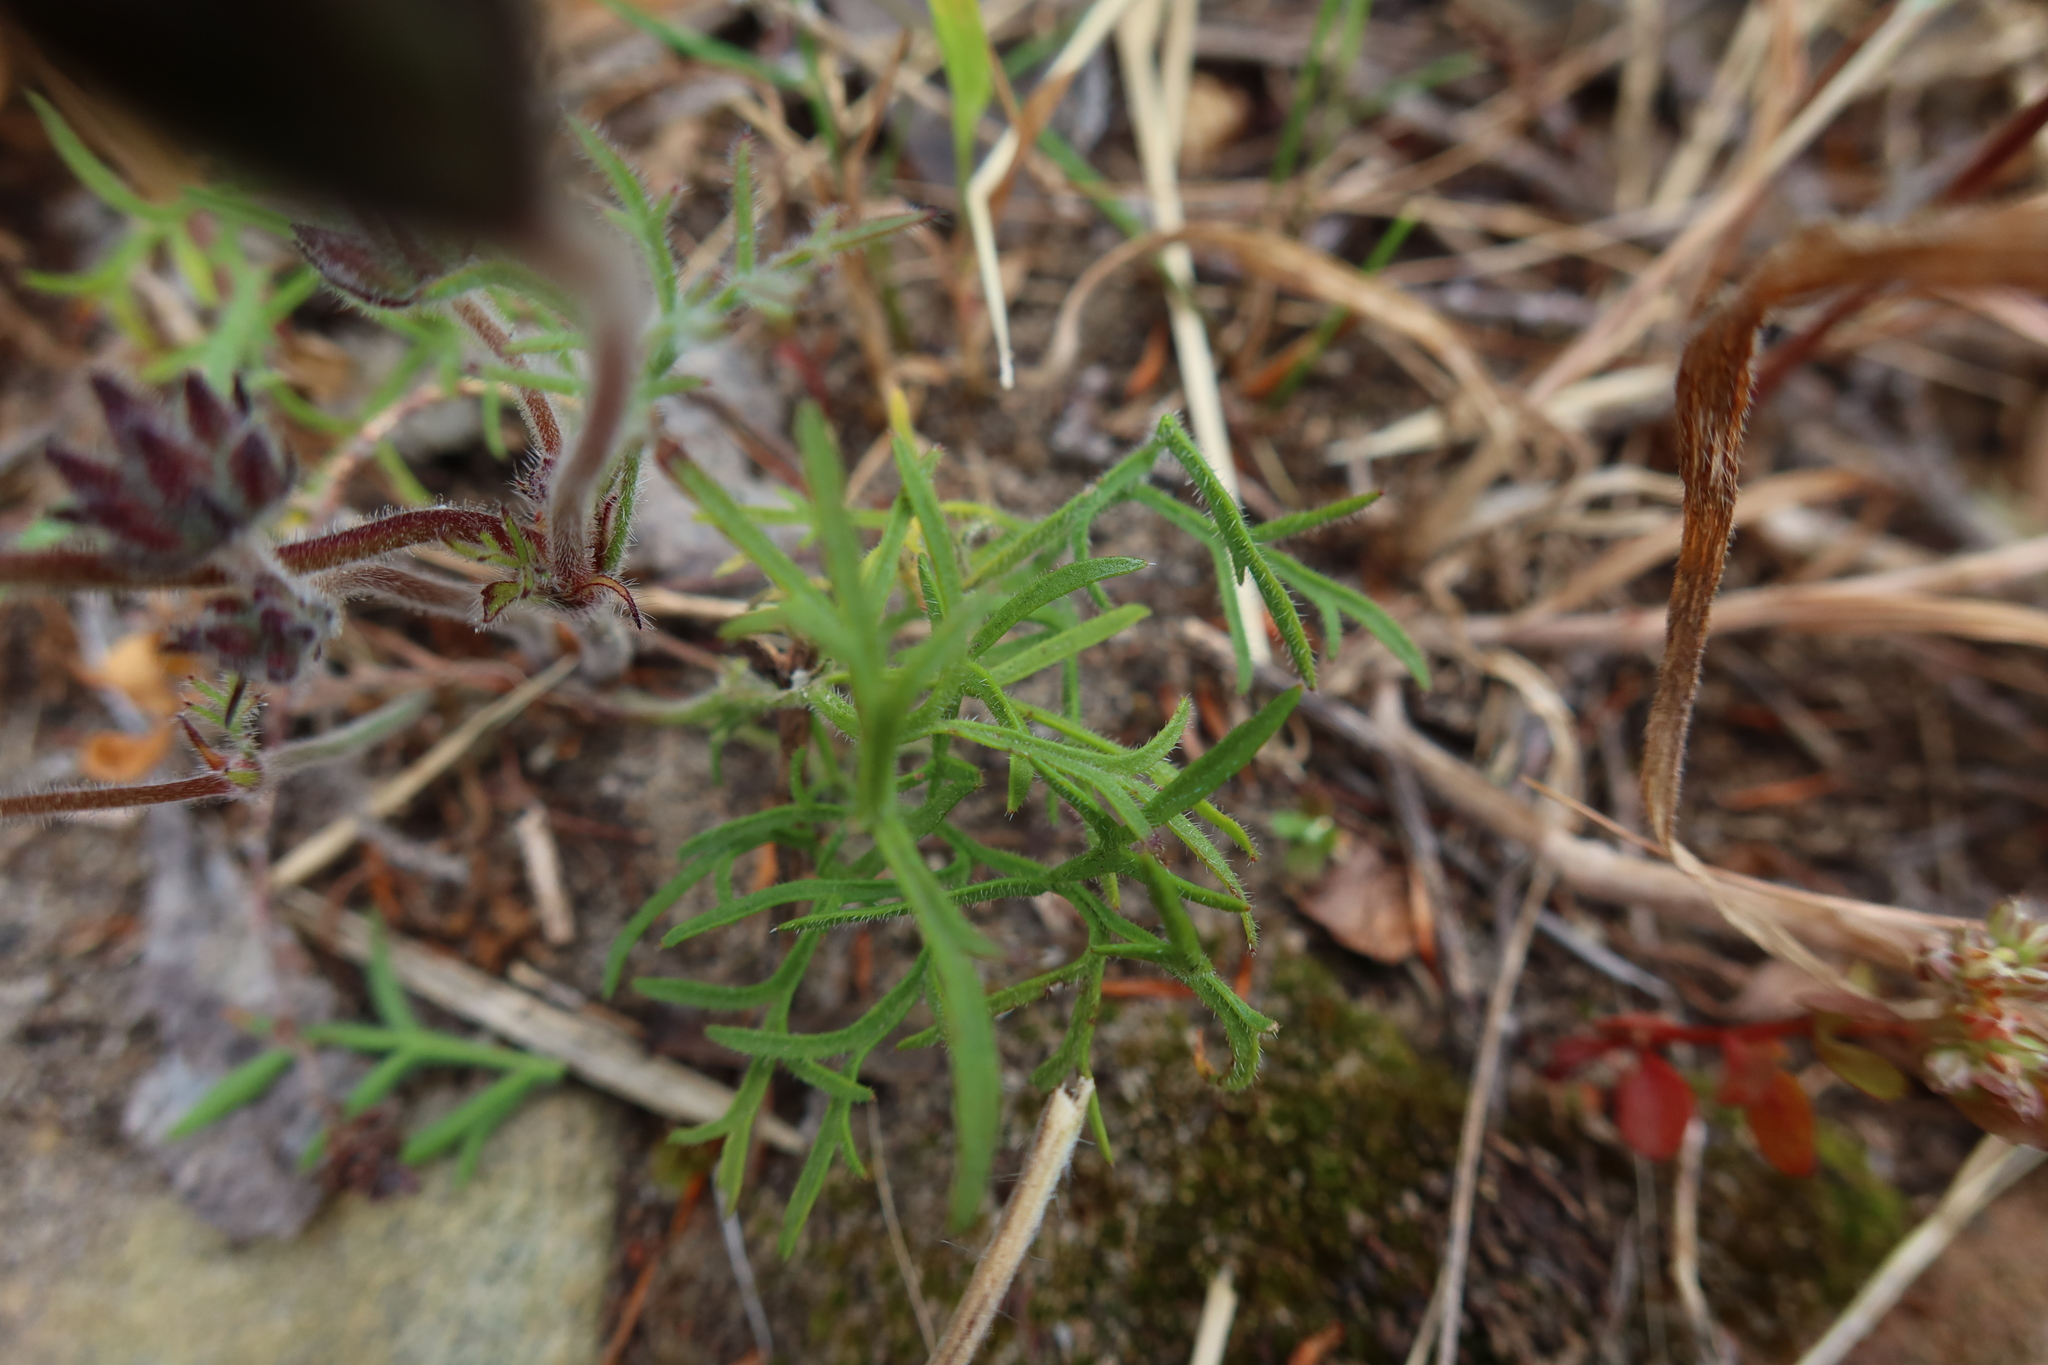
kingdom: Plantae
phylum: Tracheophyta
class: Magnoliopsida
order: Geraniales
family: Geraniaceae
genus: Pelargonium
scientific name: Pelargonium psammophilum
